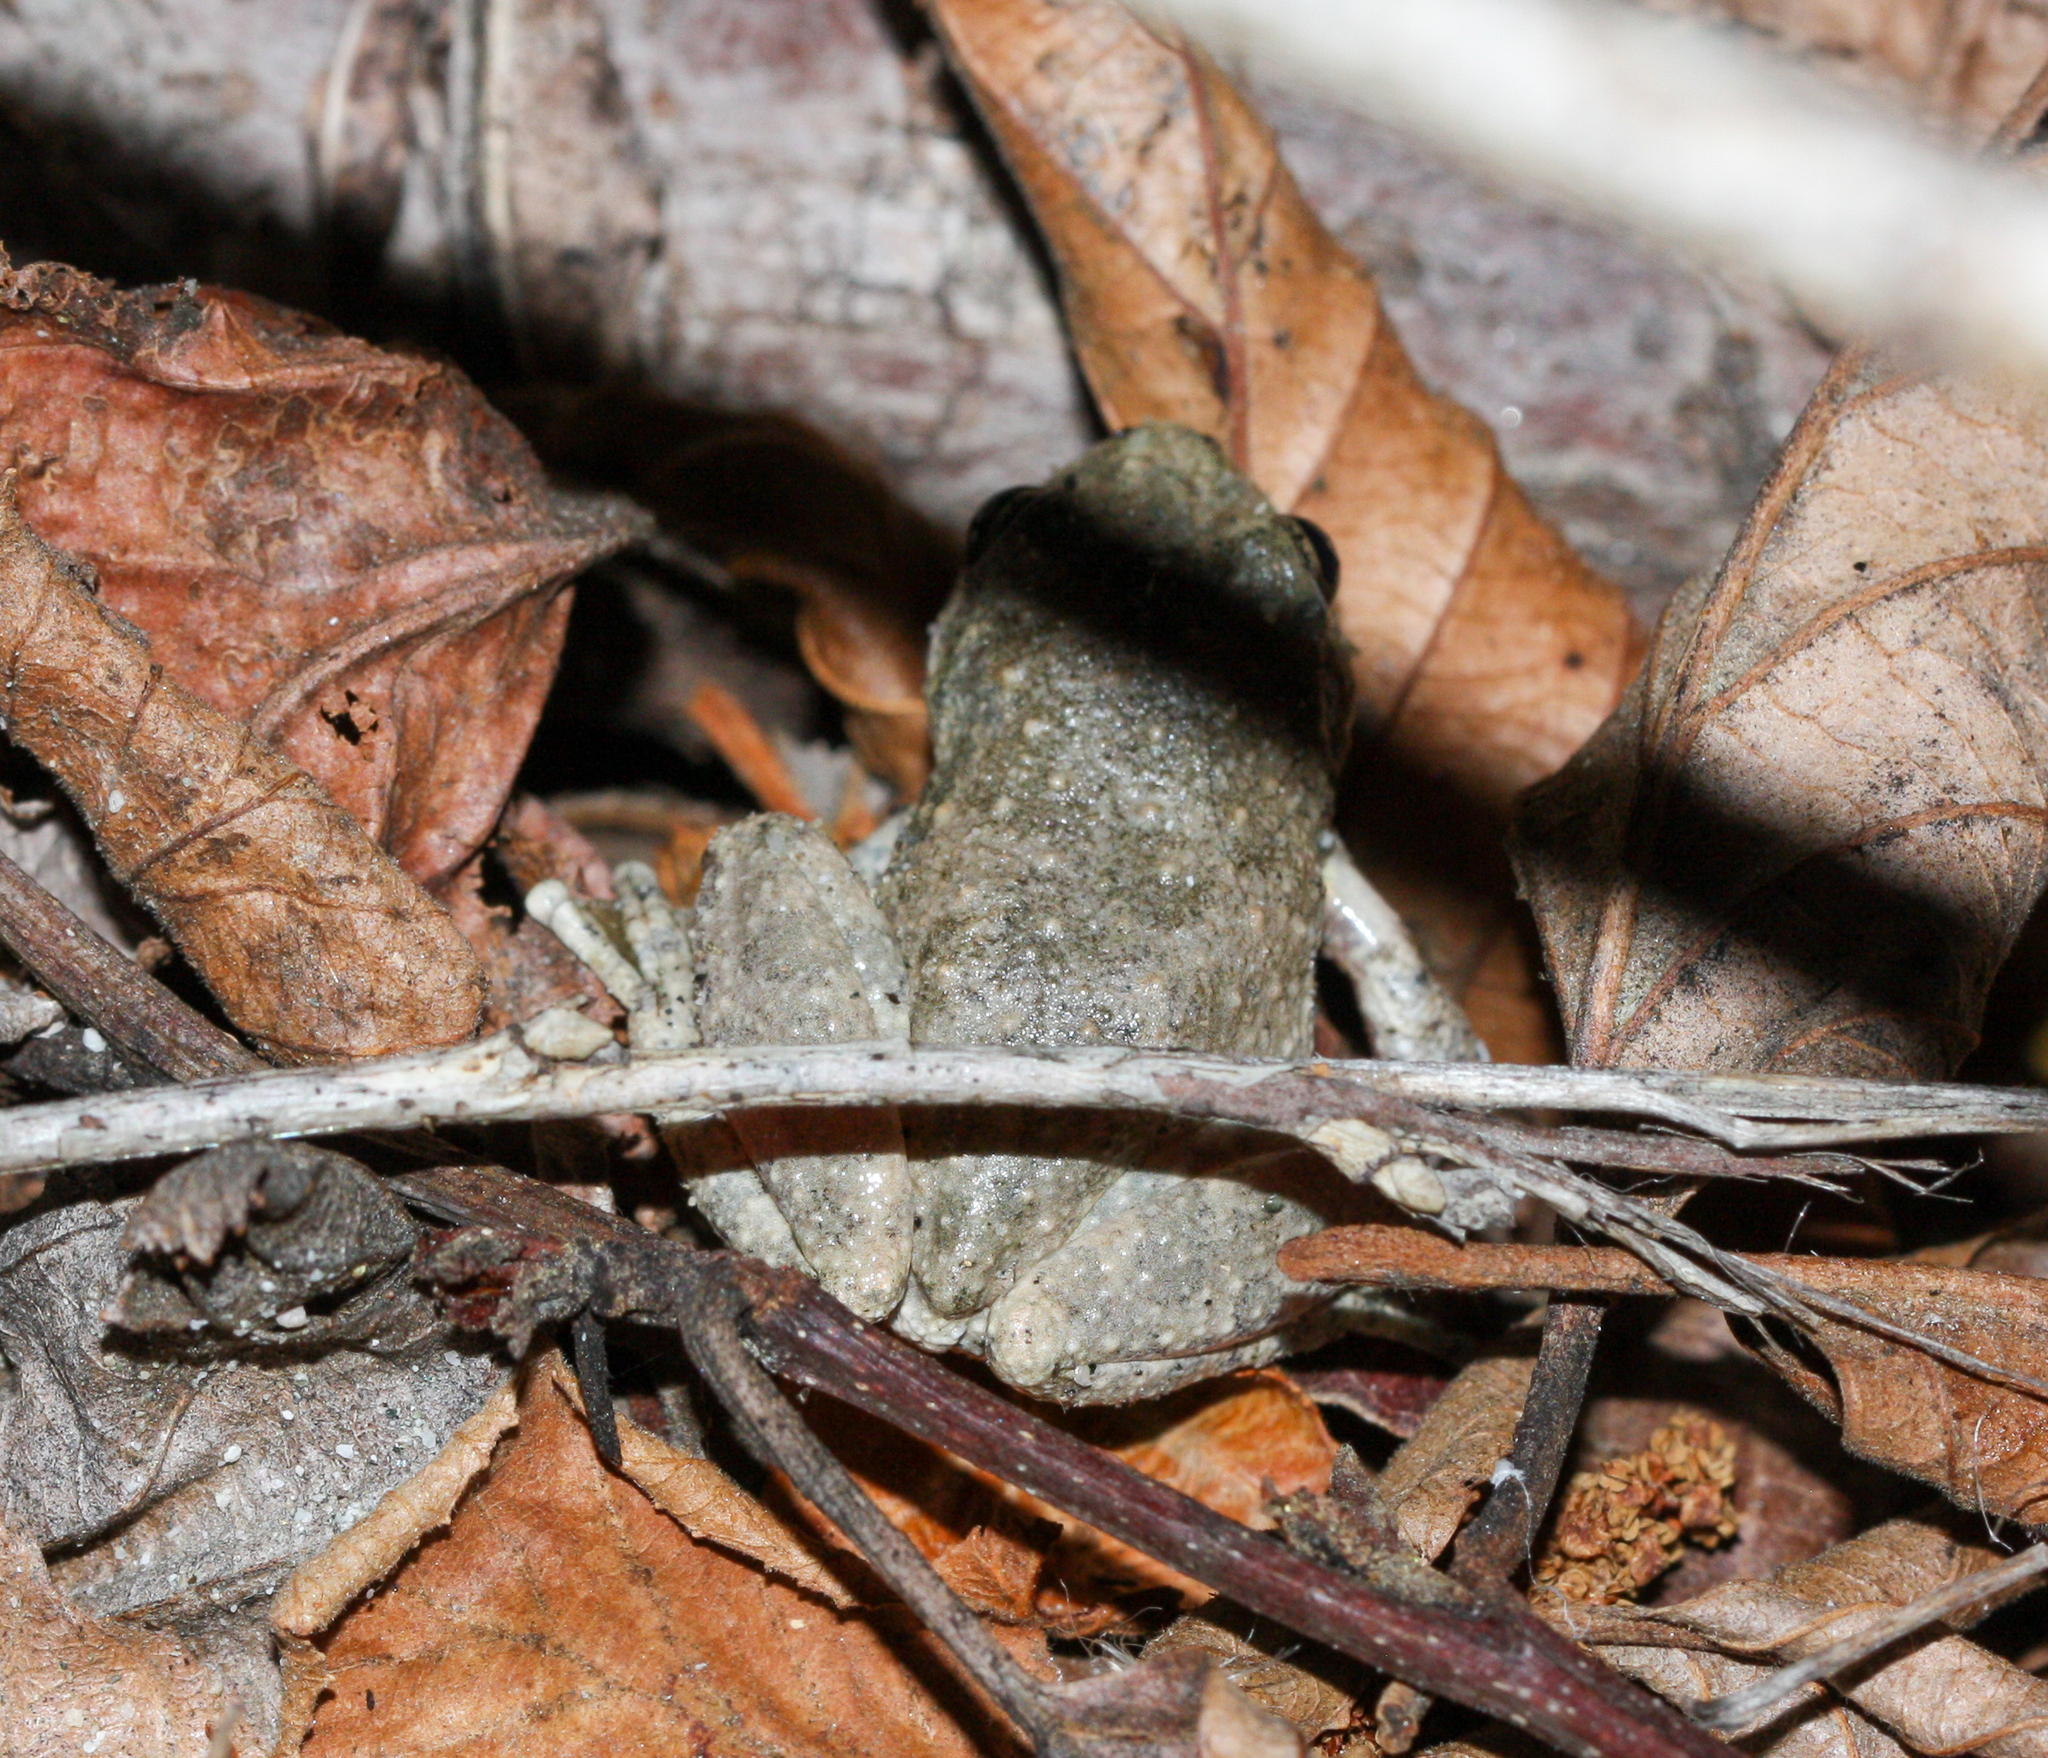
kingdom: Animalia
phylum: Chordata
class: Amphibia
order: Anura
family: Hylidae
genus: Pseudacris
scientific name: Pseudacris cadaverina
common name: California chorus frog
